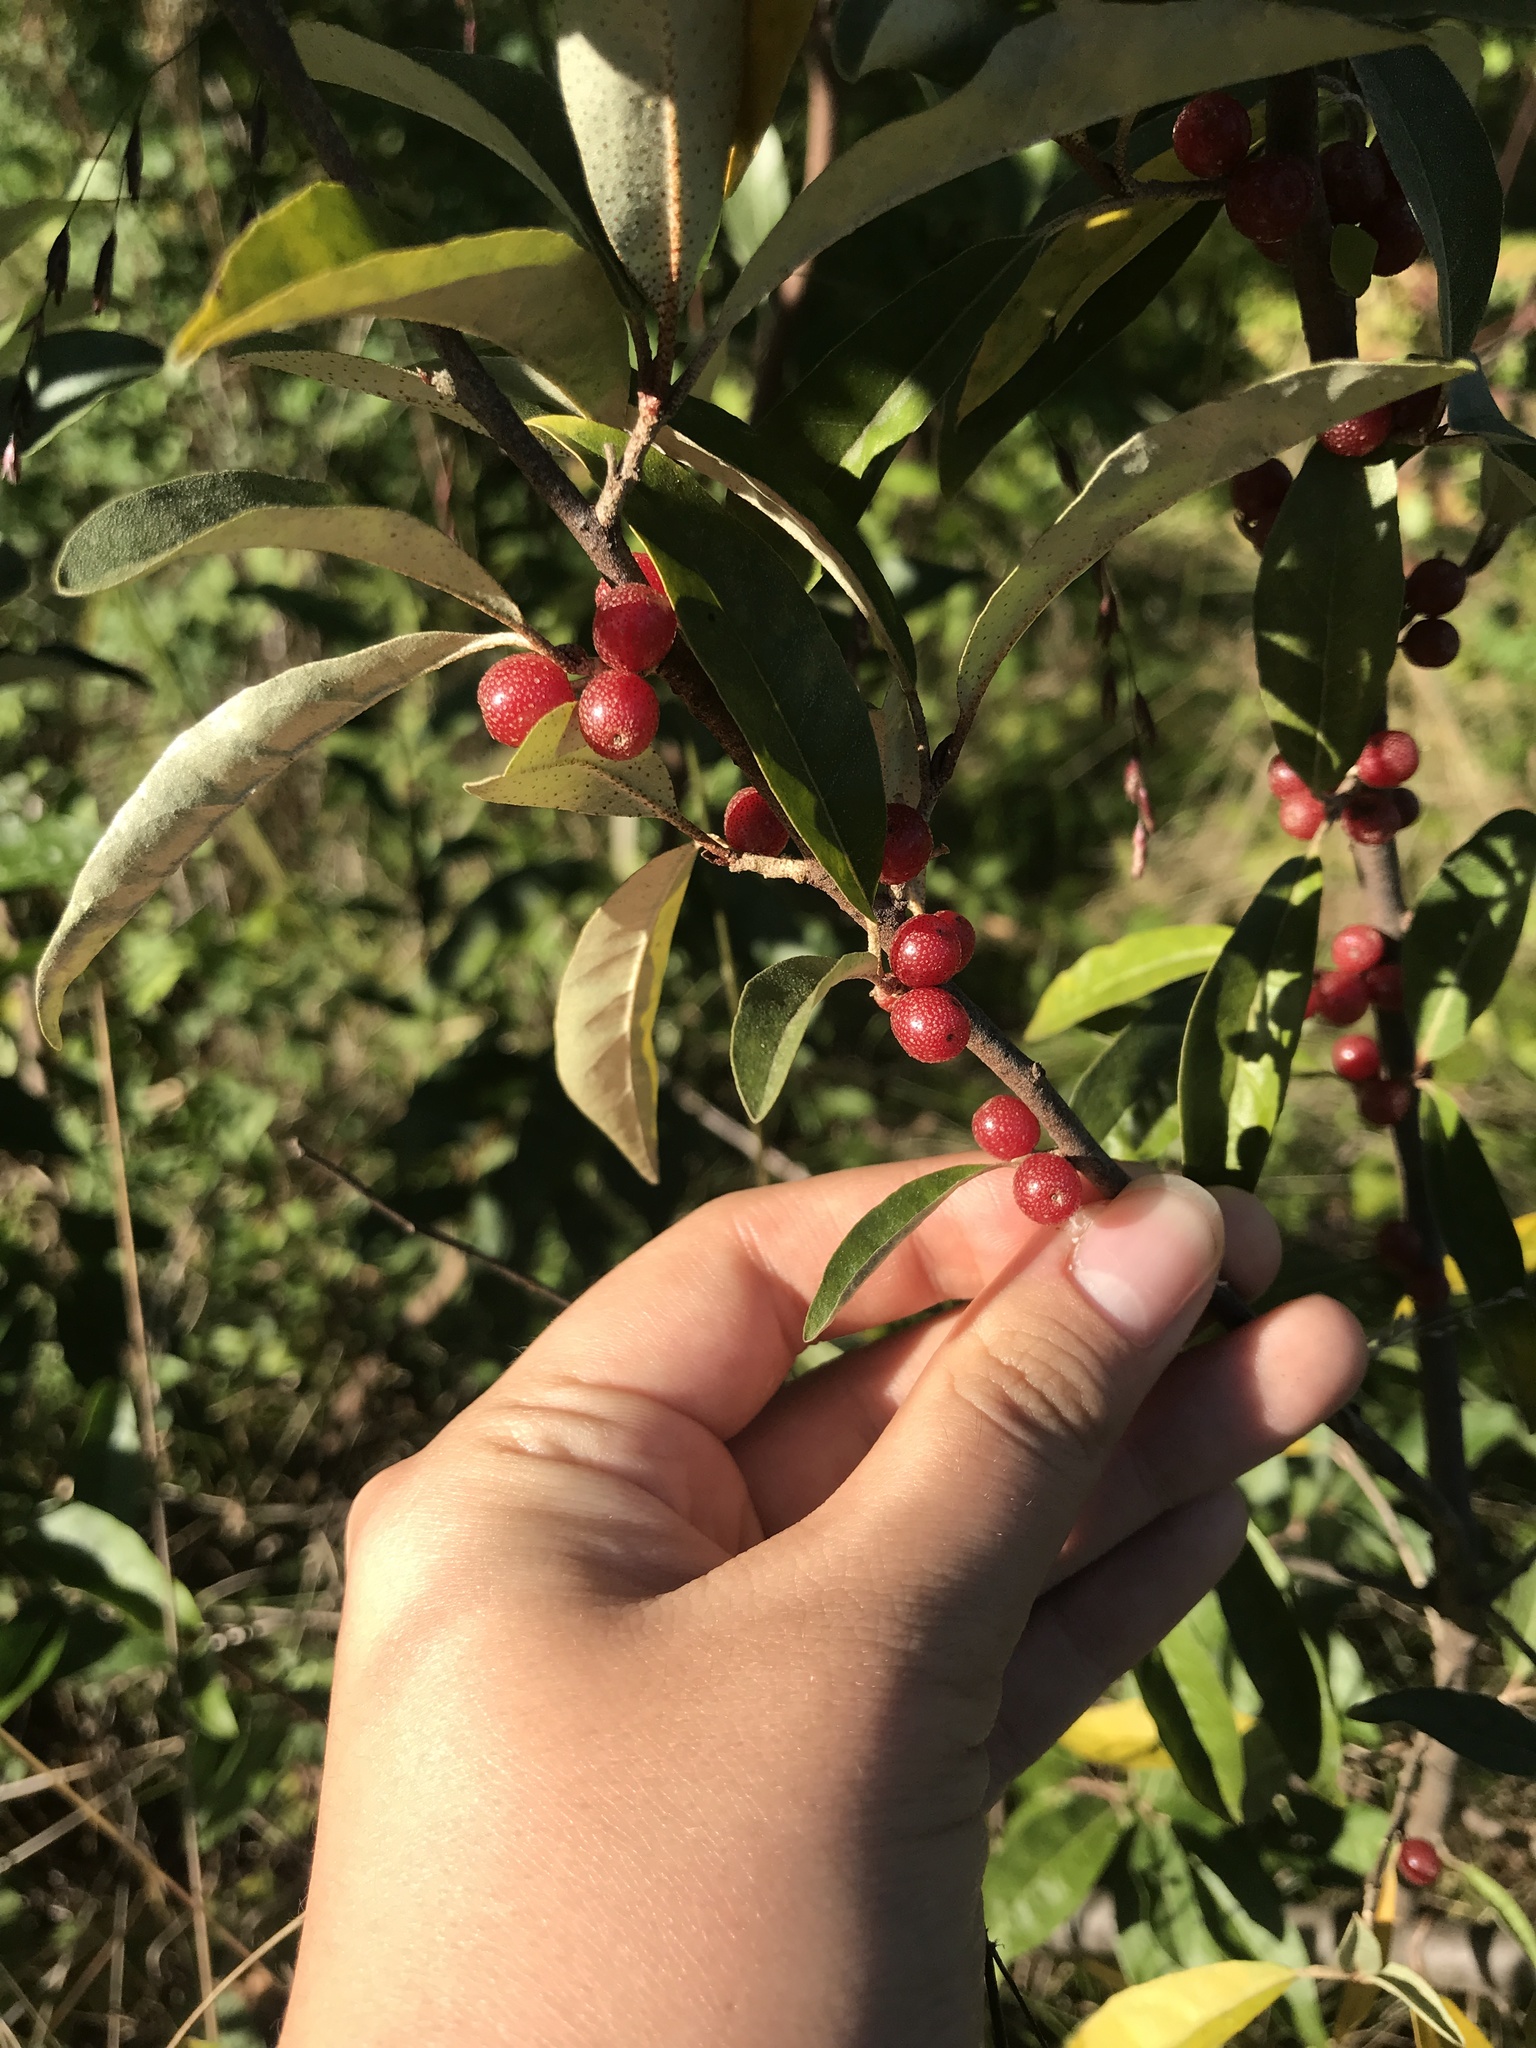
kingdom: Plantae
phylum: Tracheophyta
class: Magnoliopsida
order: Rosales
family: Elaeagnaceae
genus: Elaeagnus
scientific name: Elaeagnus umbellata
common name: Autumn olive
